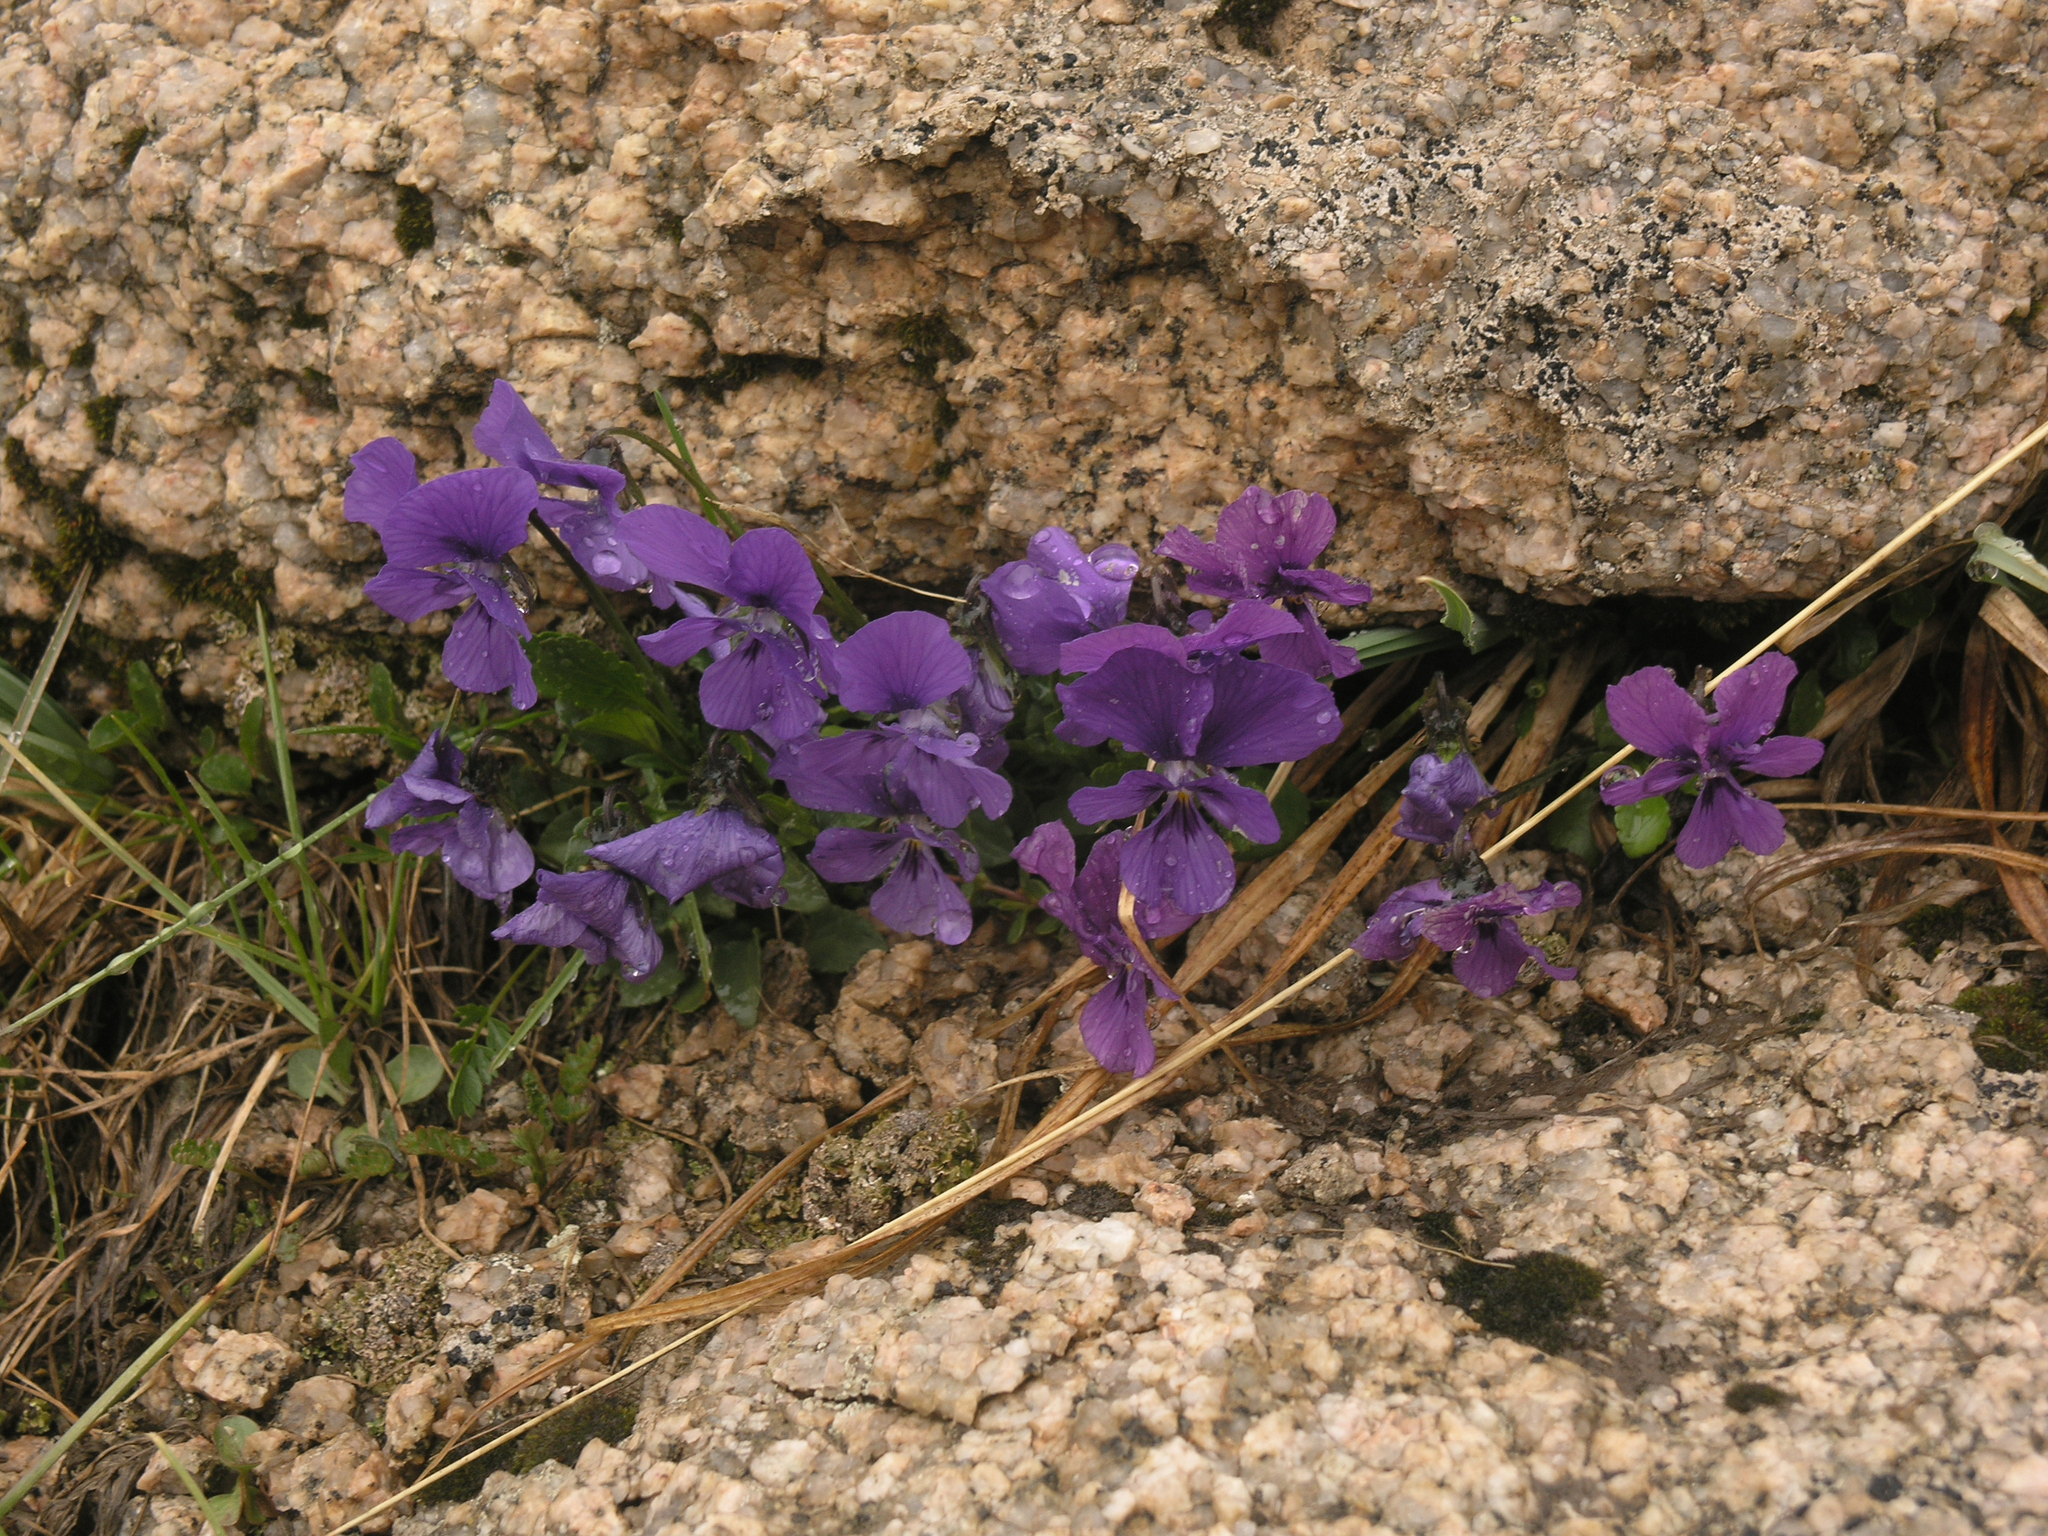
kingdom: Plantae
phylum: Tracheophyta
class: Magnoliopsida
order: Malpighiales
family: Violaceae
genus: Viola
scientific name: Viola altaica
